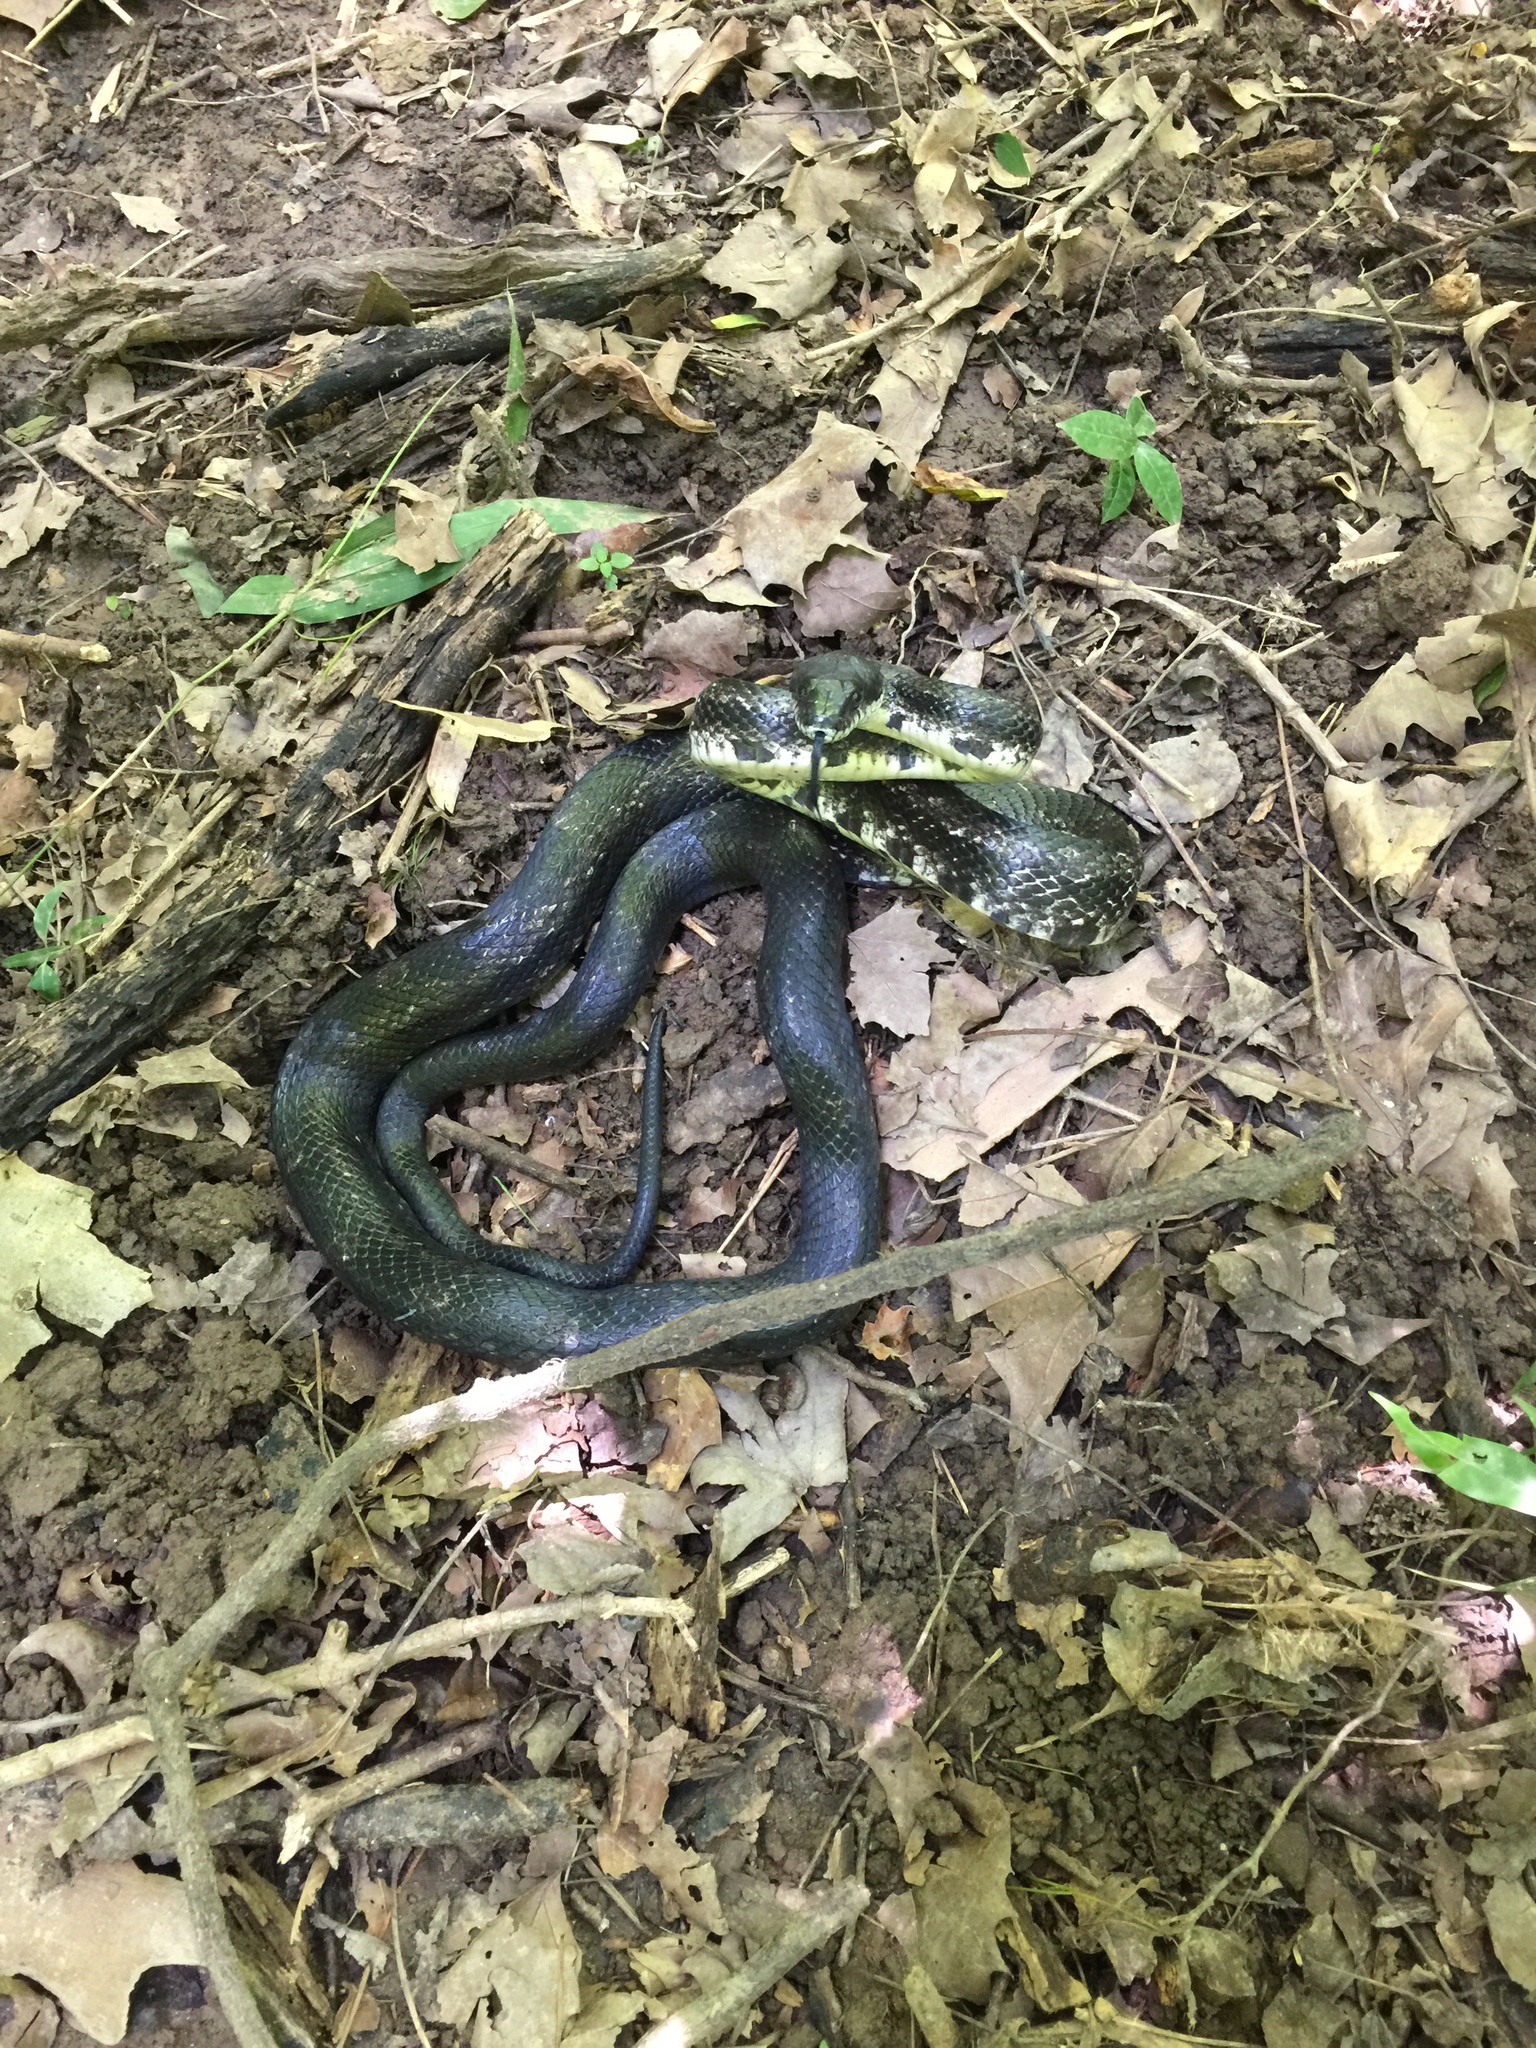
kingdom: Animalia
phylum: Chordata
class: Squamata
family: Colubridae
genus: Pantherophis
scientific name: Pantherophis alleghaniensis
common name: Eastern rat snake
